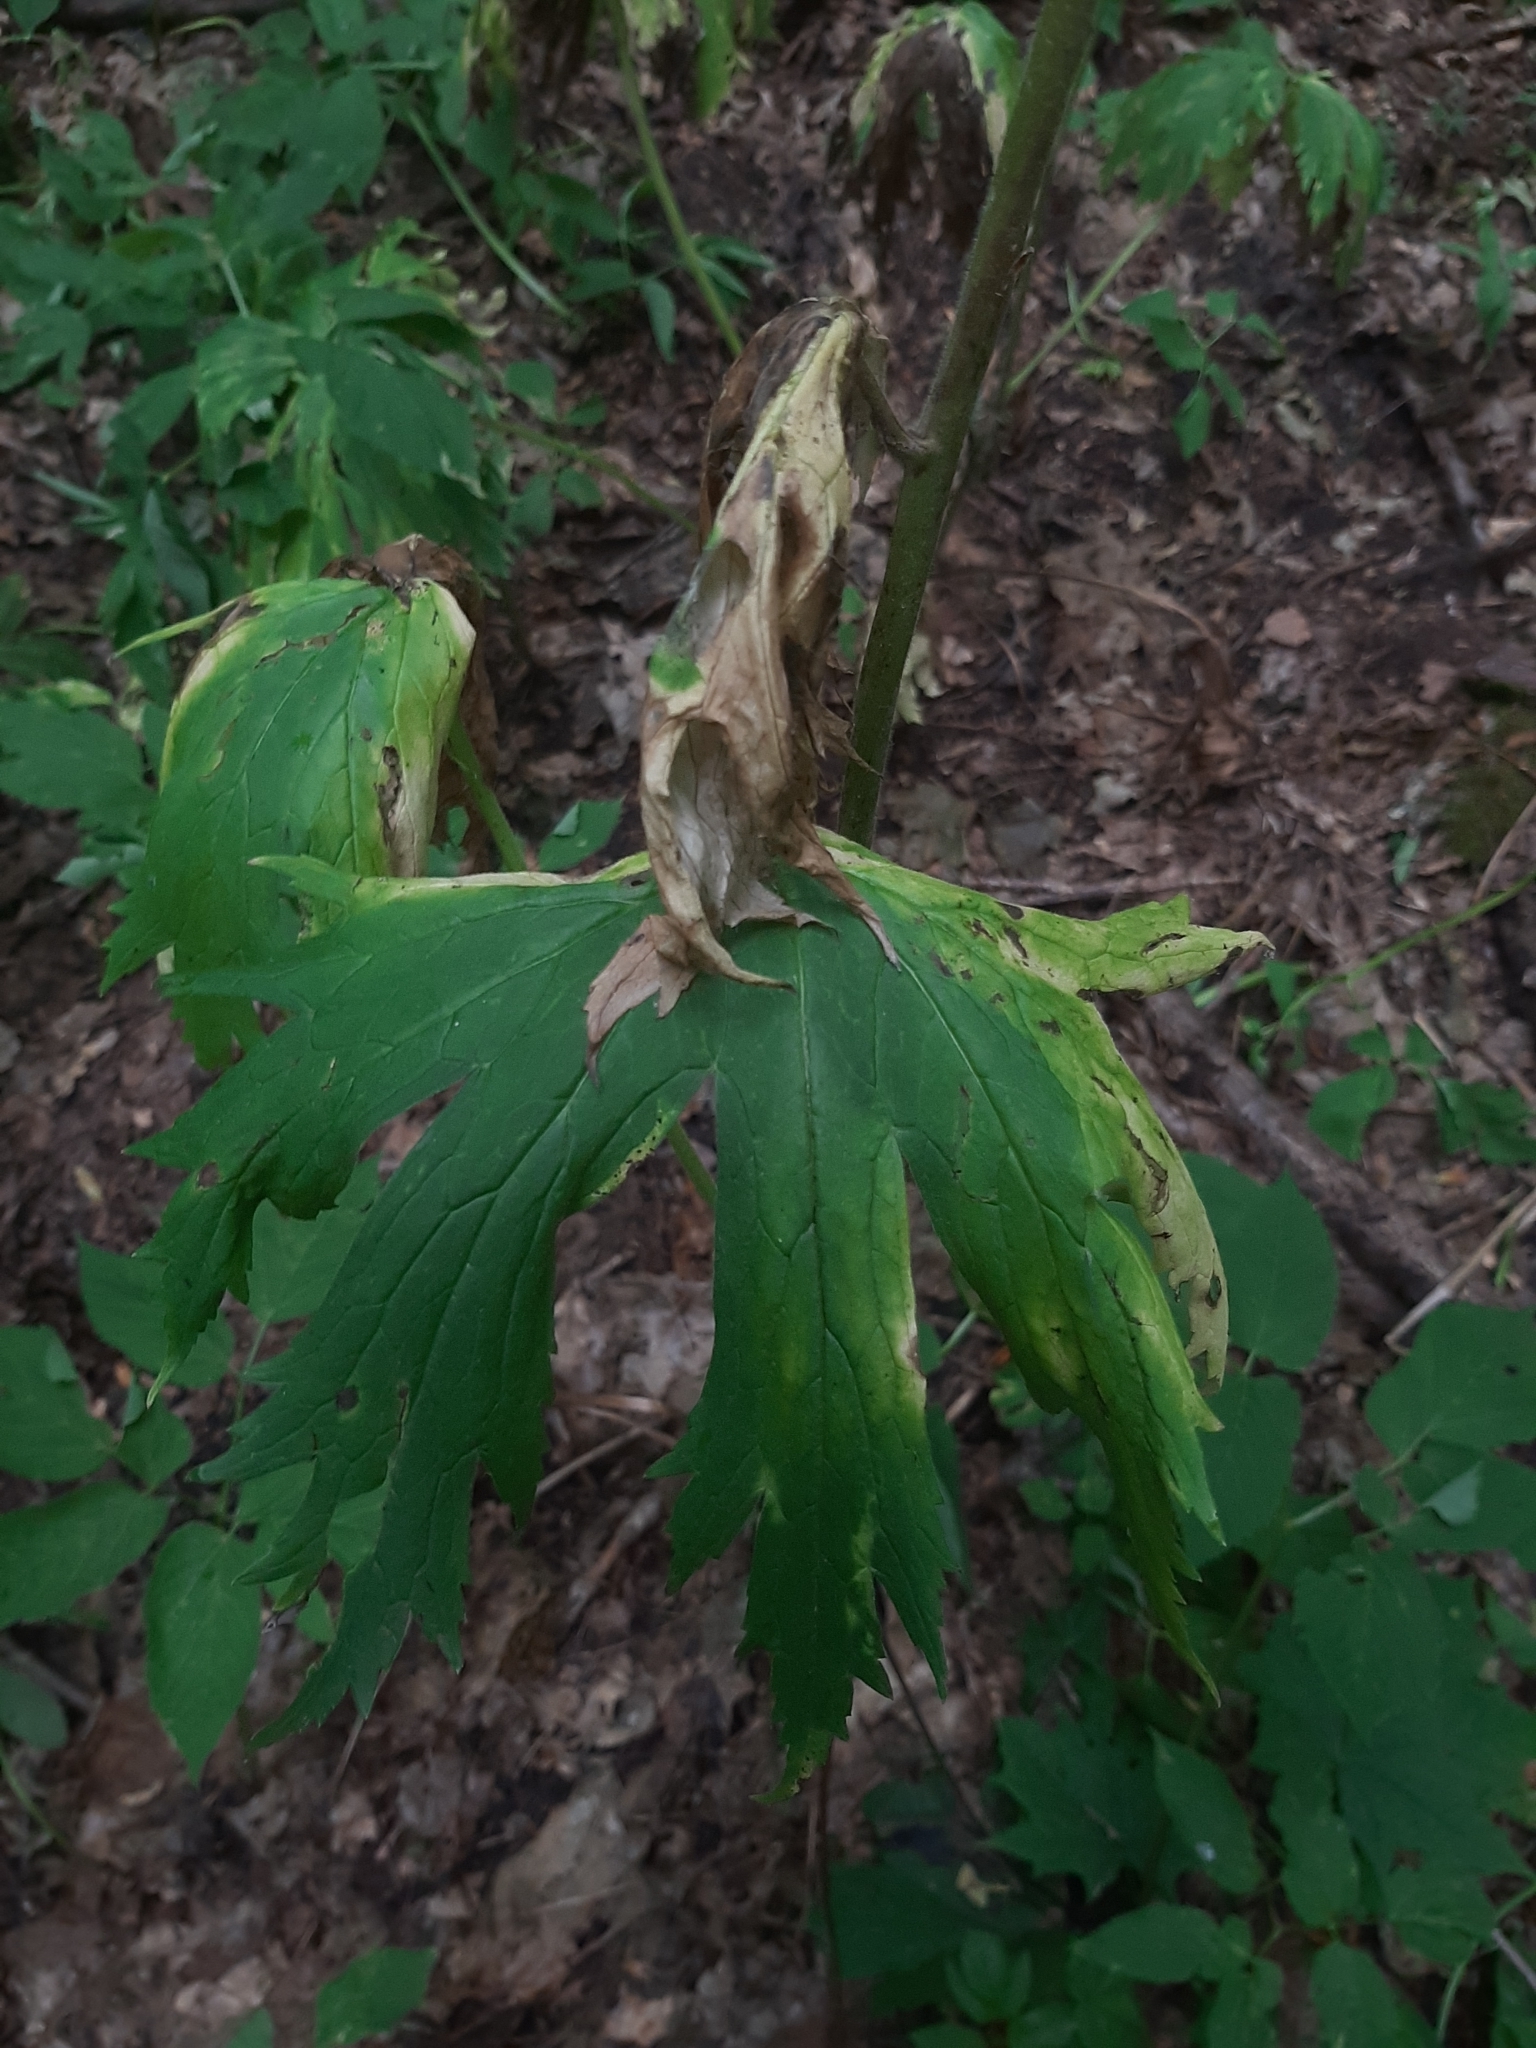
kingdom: Plantae
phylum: Tracheophyta
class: Magnoliopsida
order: Ranunculales
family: Ranunculaceae
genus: Aconitum
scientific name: Aconitum septentrionale
